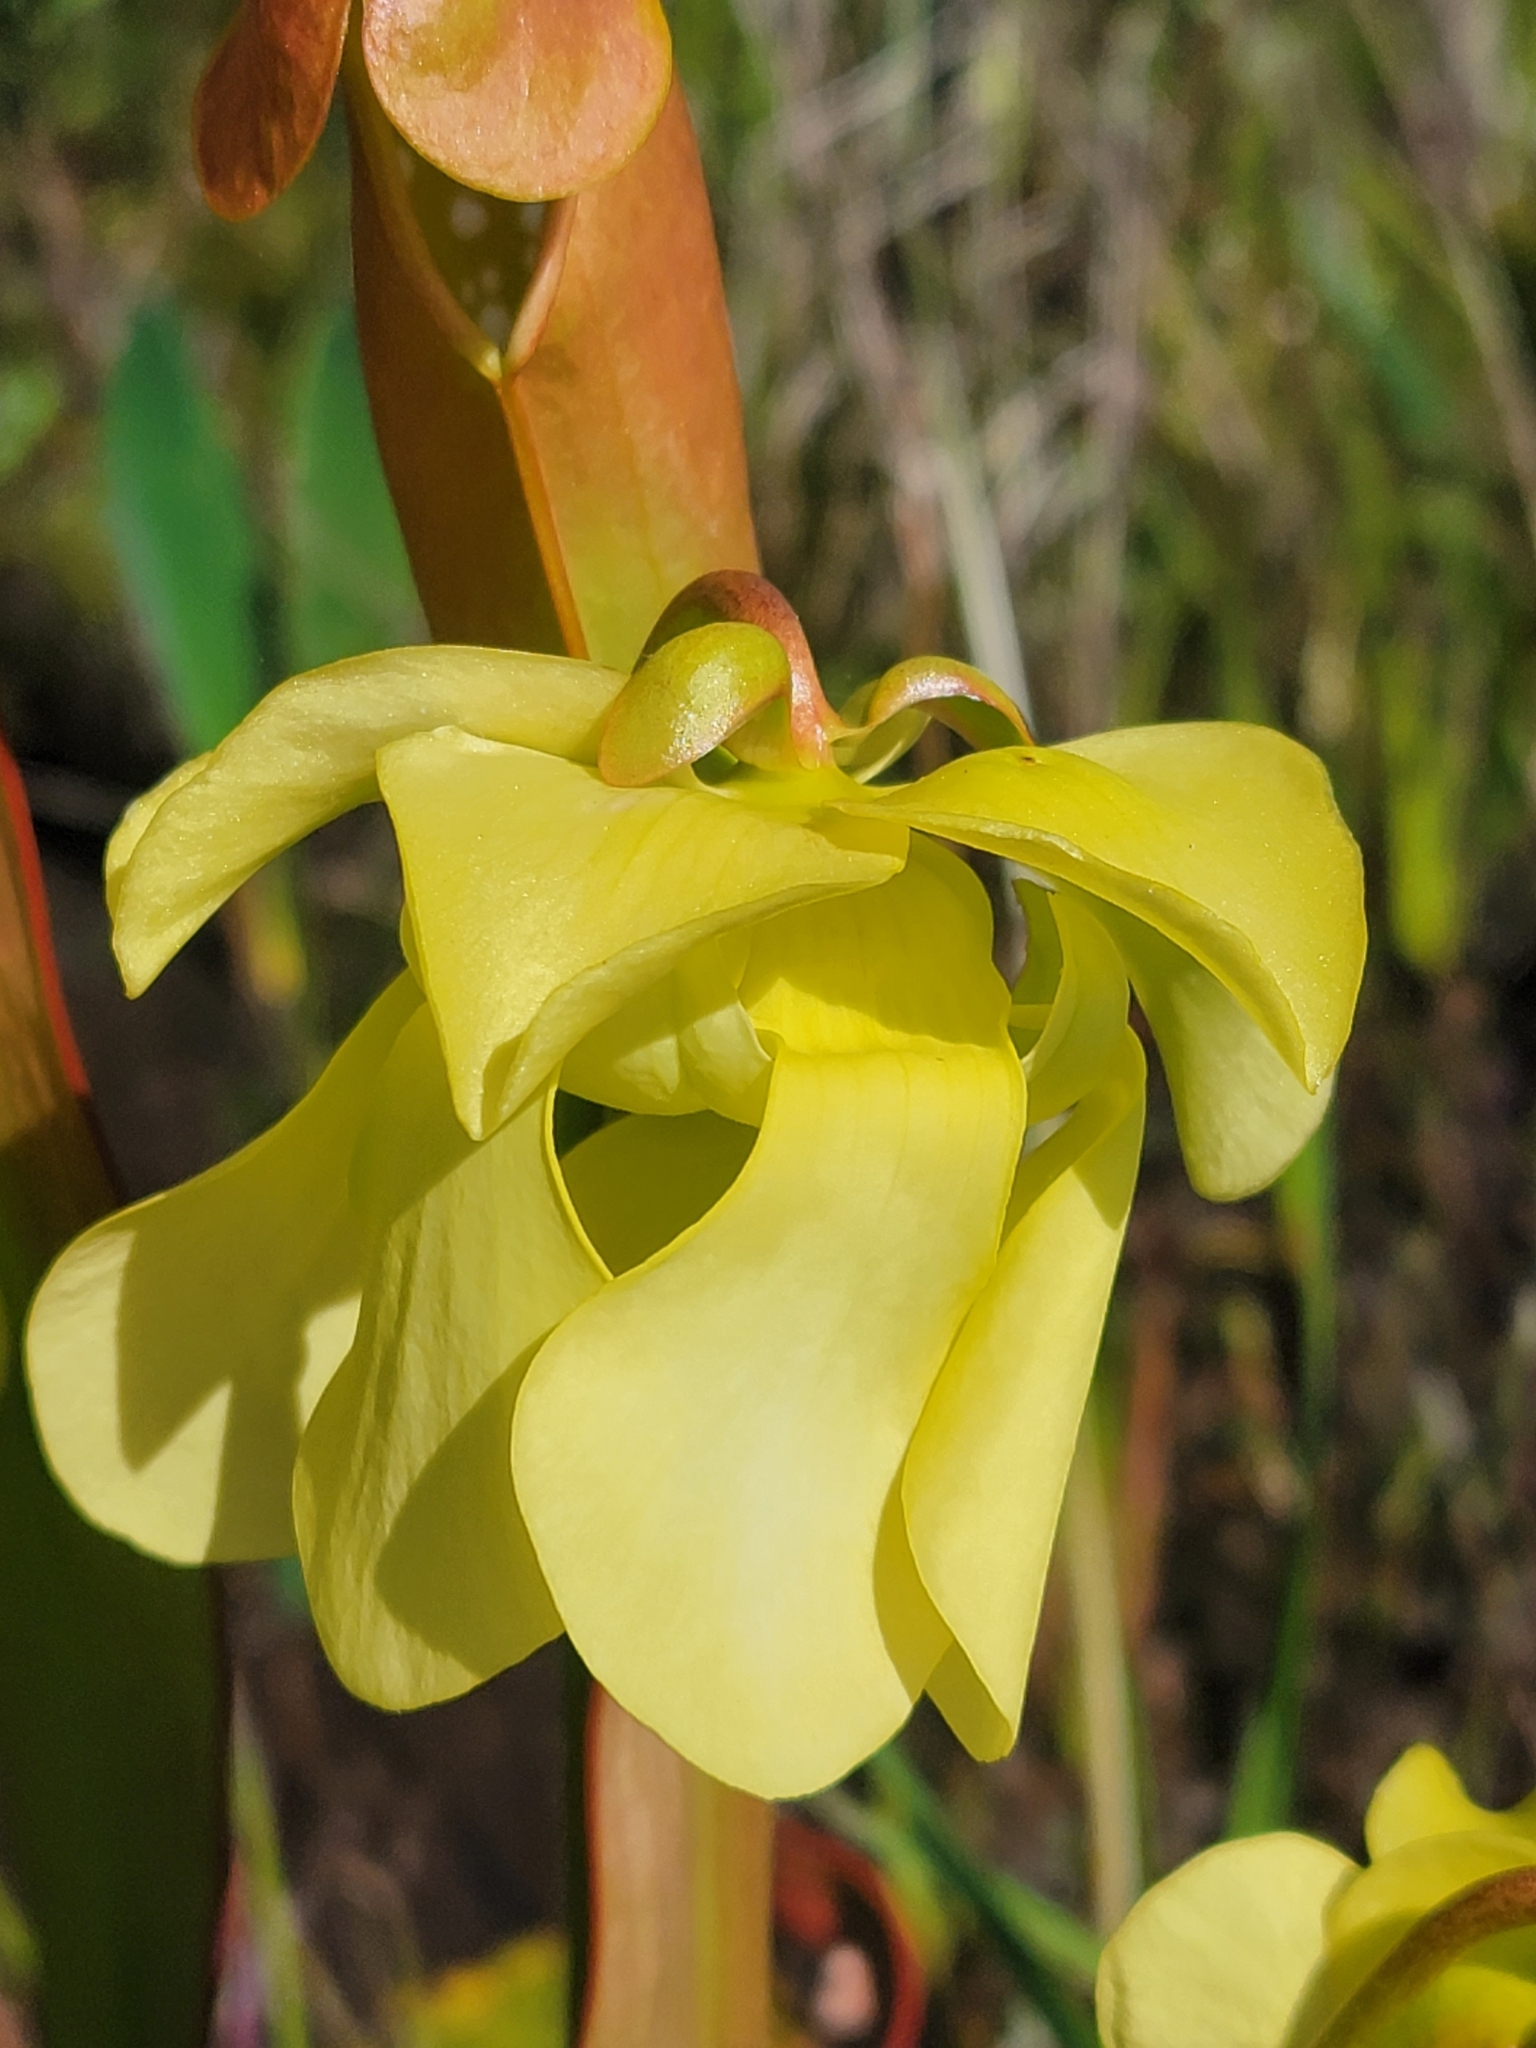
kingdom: Plantae
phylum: Tracheophyta
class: Magnoliopsida
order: Ericales
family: Sarraceniaceae
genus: Sarracenia
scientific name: Sarracenia minor
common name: Rainhat-trumpet
